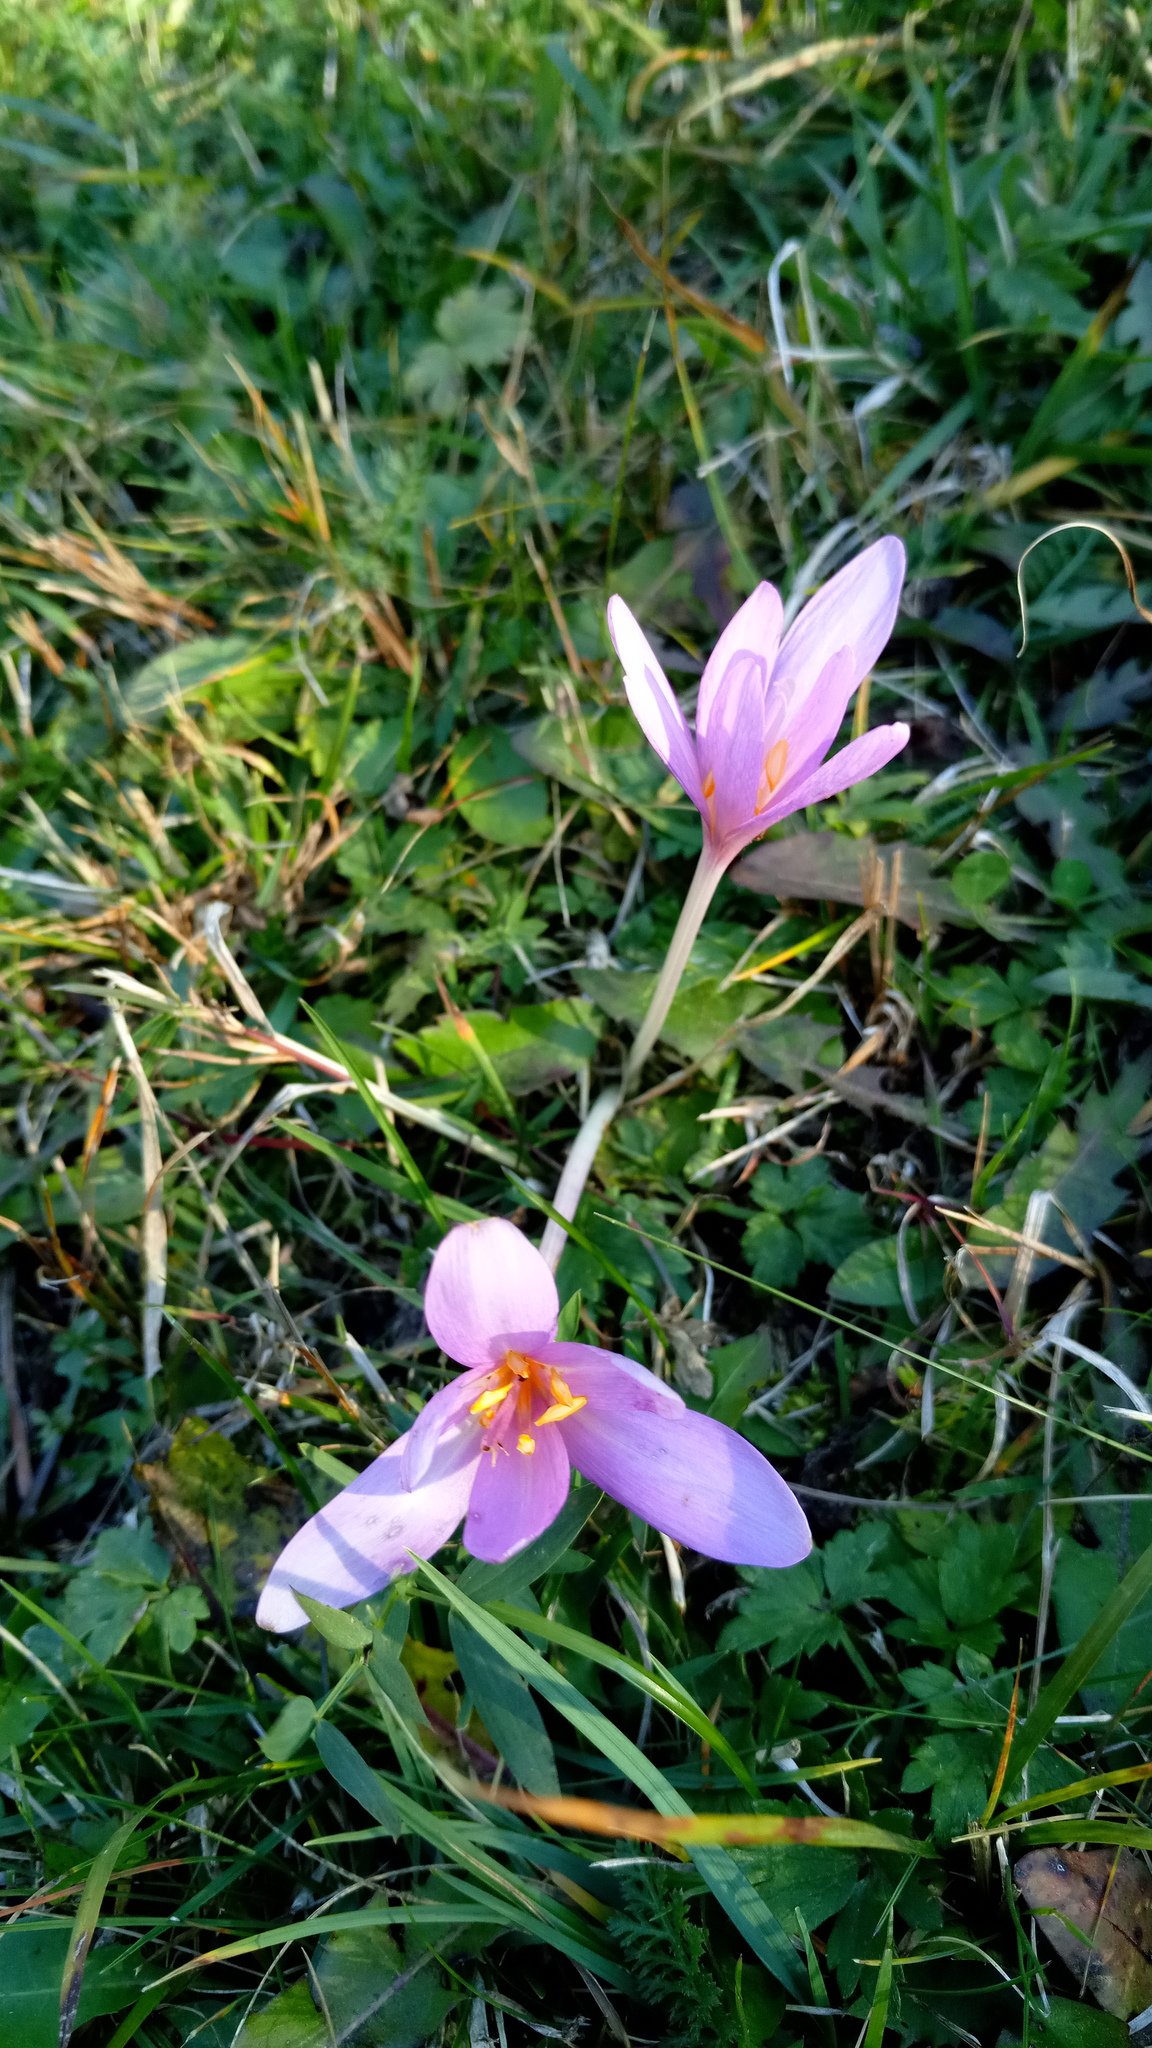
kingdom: Plantae
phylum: Tracheophyta
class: Liliopsida
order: Liliales
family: Colchicaceae
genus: Colchicum
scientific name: Colchicum autumnale
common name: Autumn crocus
